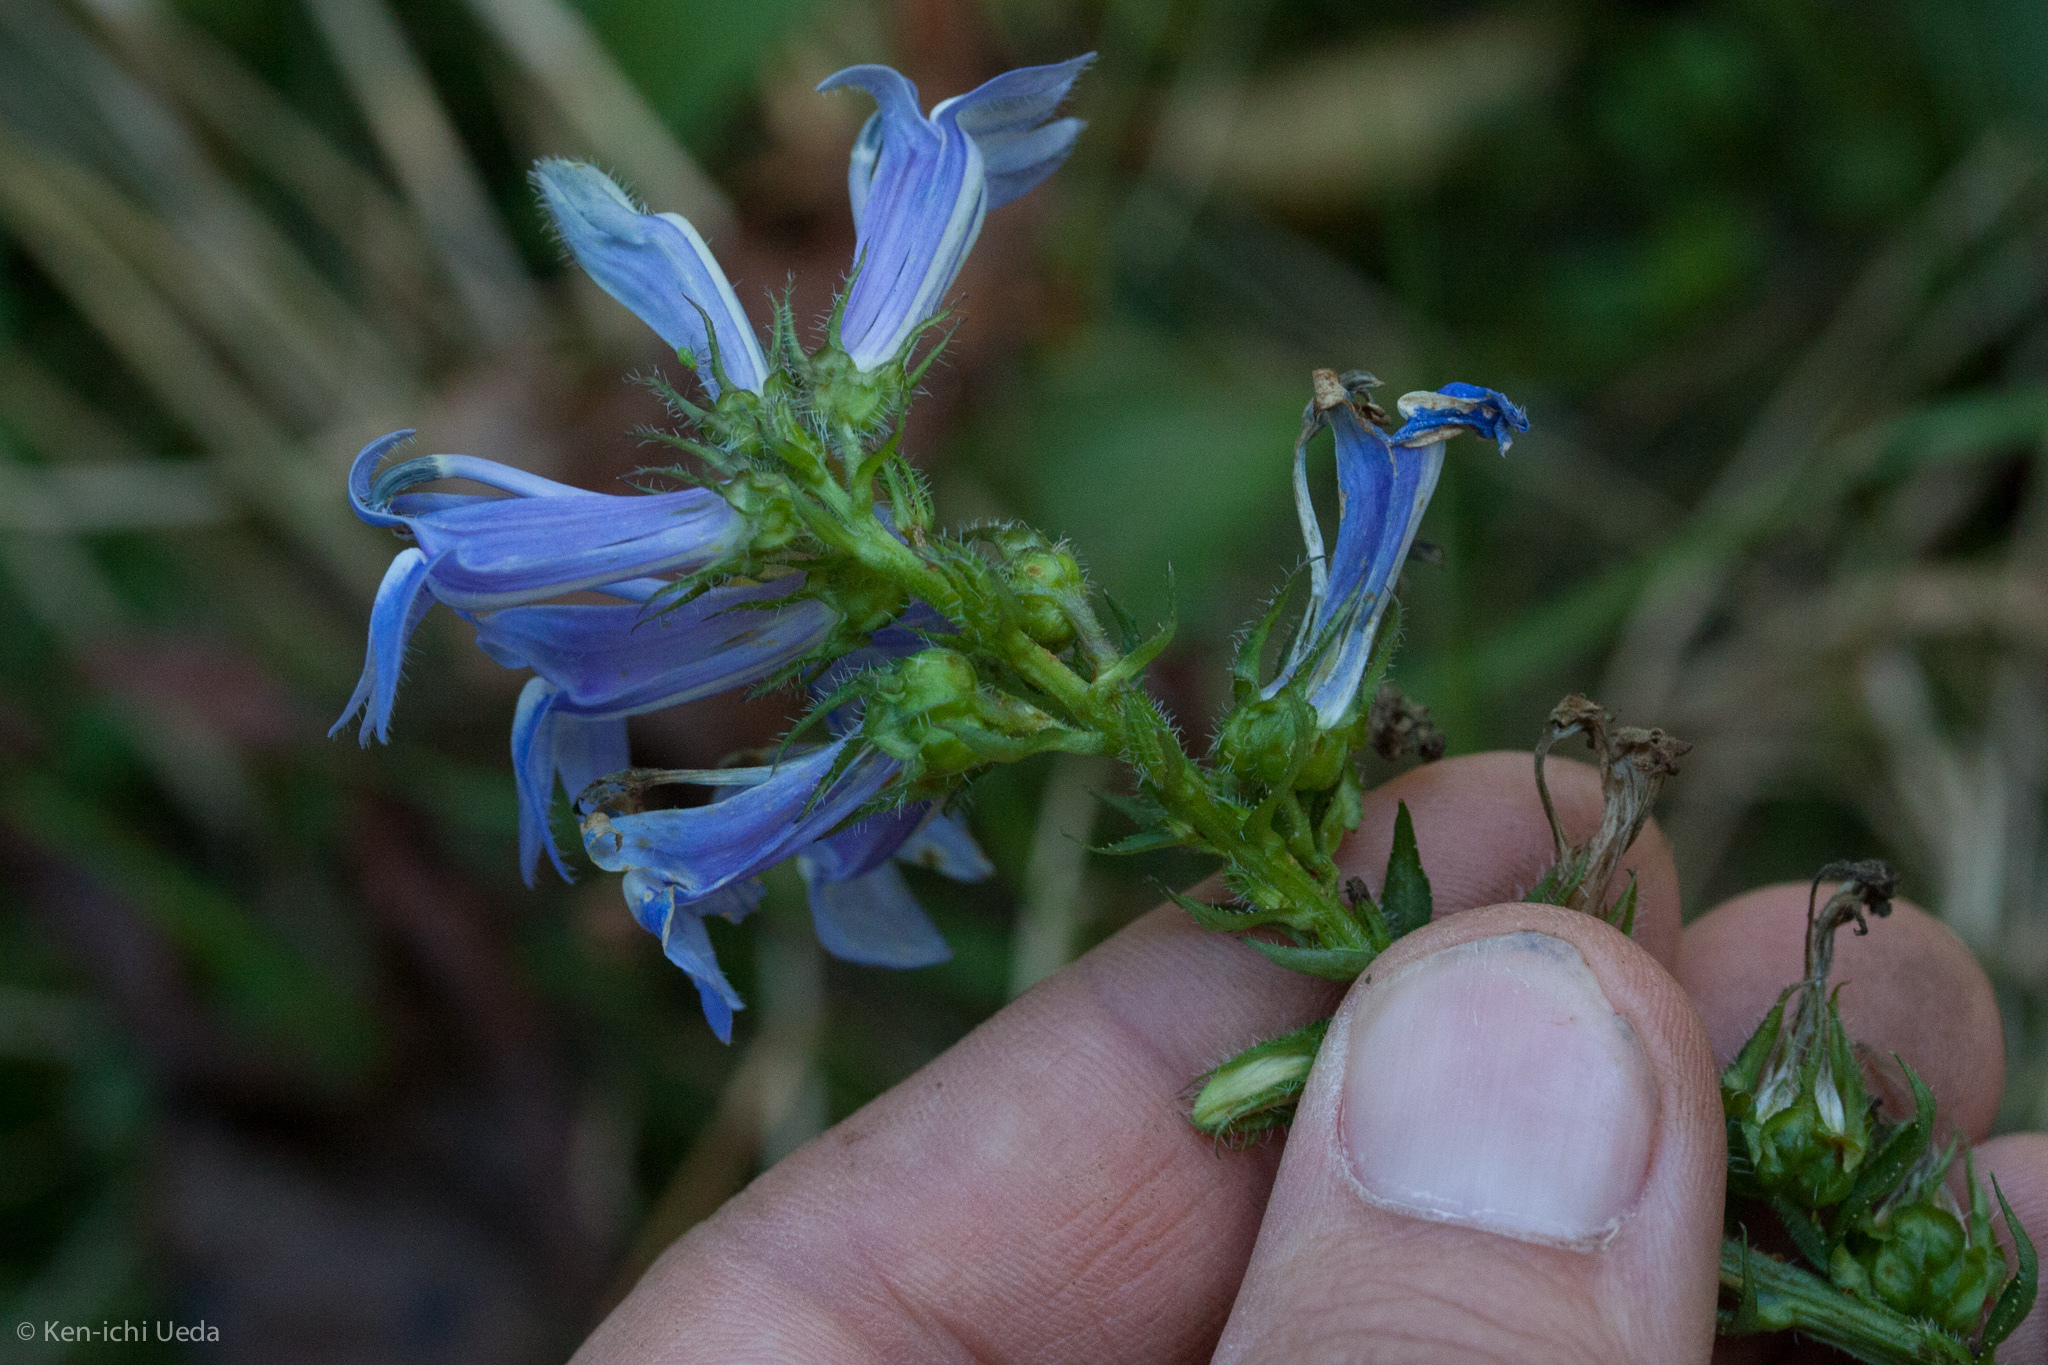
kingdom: Plantae
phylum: Tracheophyta
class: Magnoliopsida
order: Asterales
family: Campanulaceae
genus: Lobelia
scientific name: Lobelia siphilitica
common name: Great lobelia
